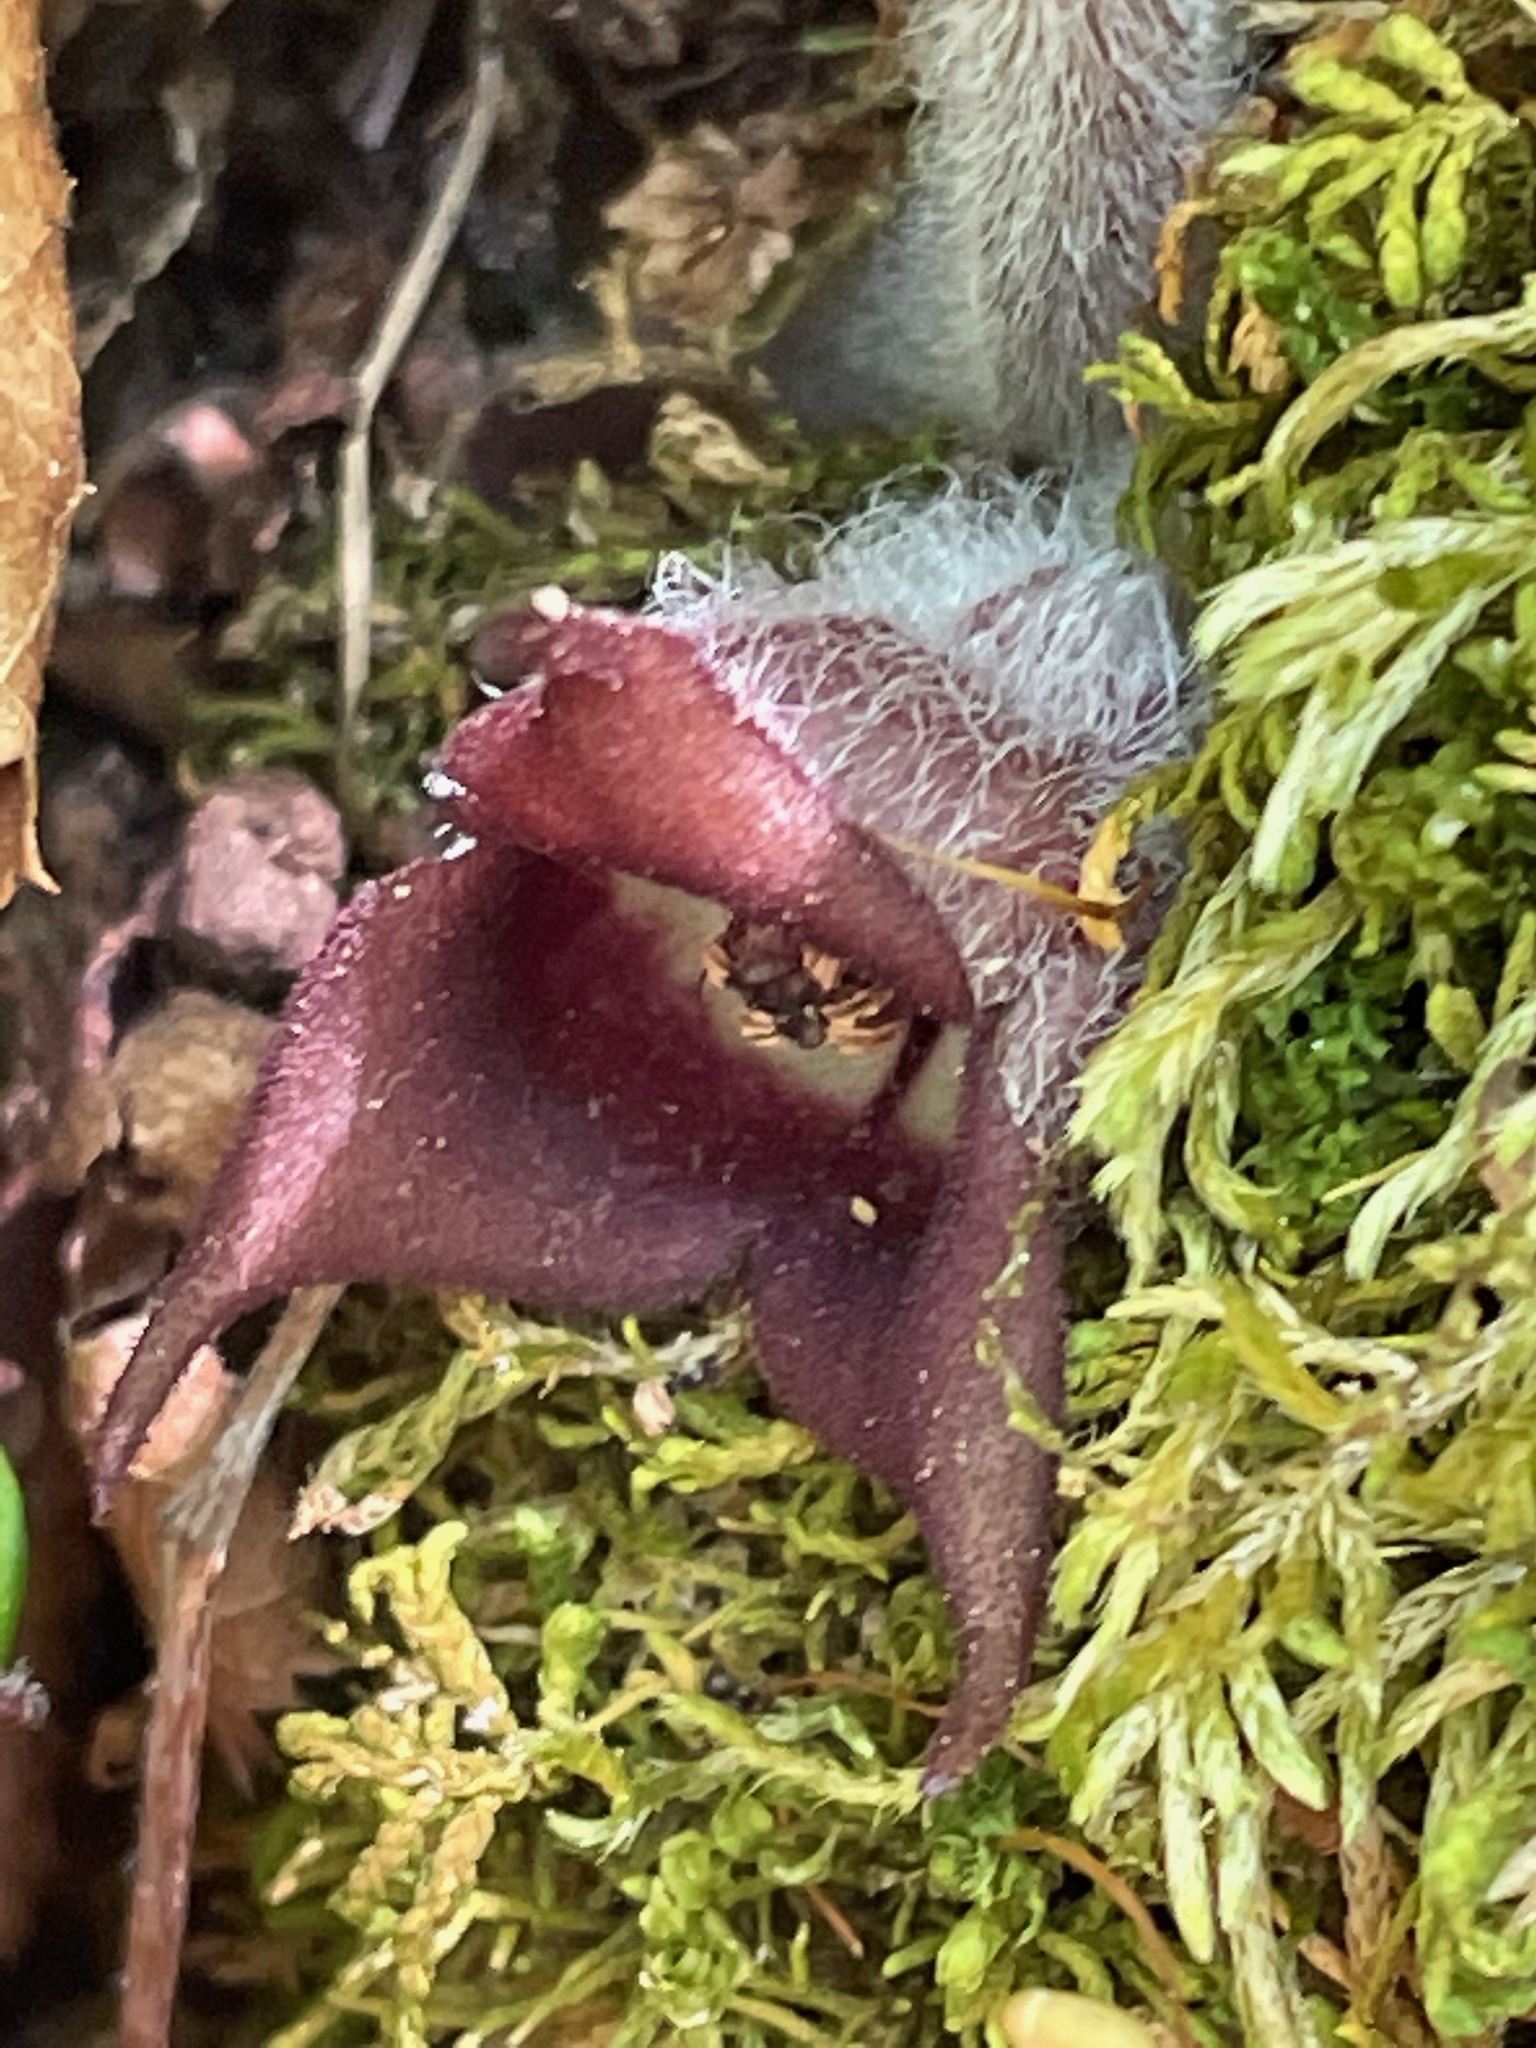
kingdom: Plantae
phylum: Tracheophyta
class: Magnoliopsida
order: Piperales
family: Aristolochiaceae
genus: Asarum
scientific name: Asarum canadense
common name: Wild ginger
